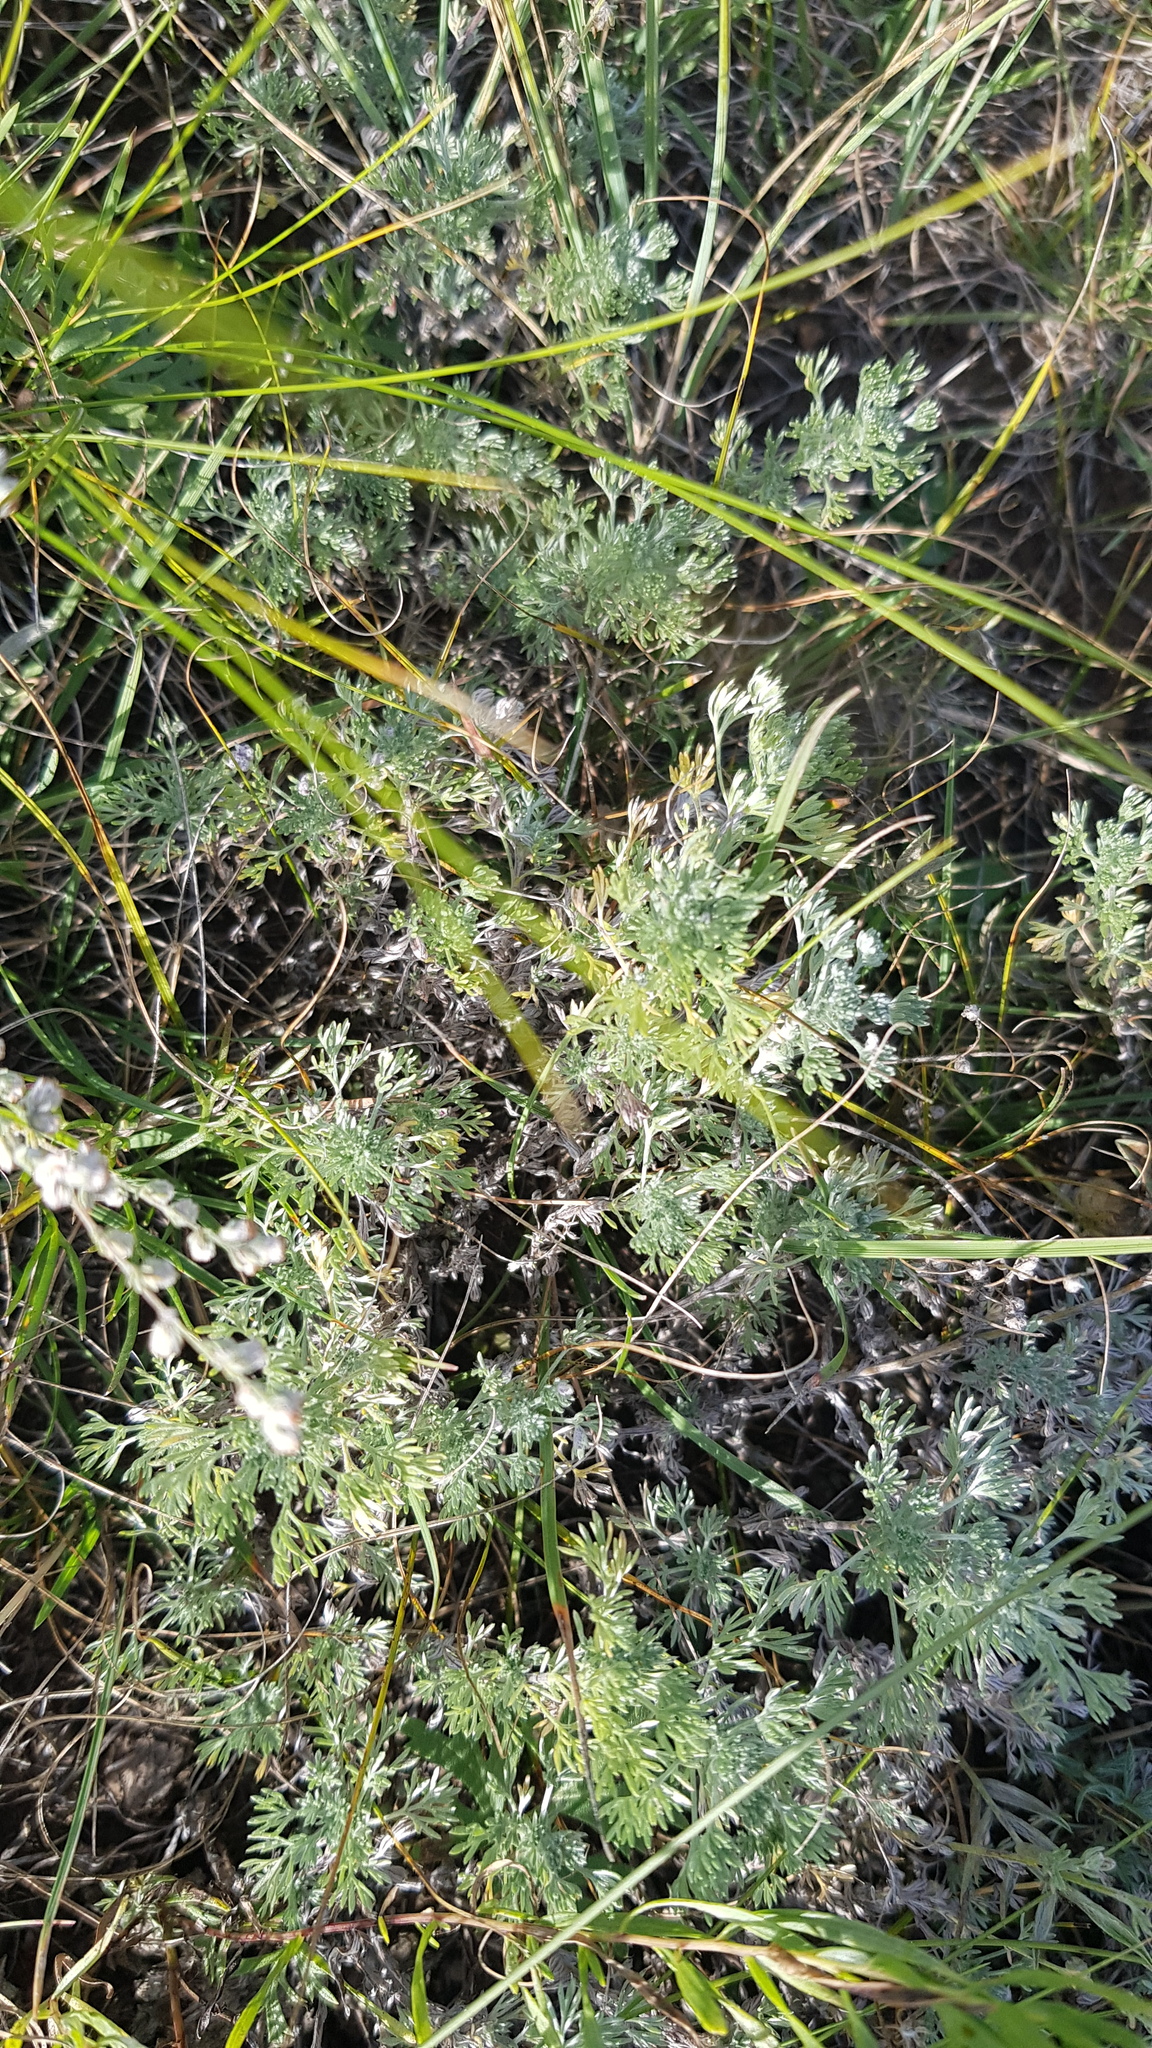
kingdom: Plantae
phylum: Tracheophyta
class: Magnoliopsida
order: Asterales
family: Asteraceae
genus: Artemisia
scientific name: Artemisia frigida
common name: Prairie sagewort
